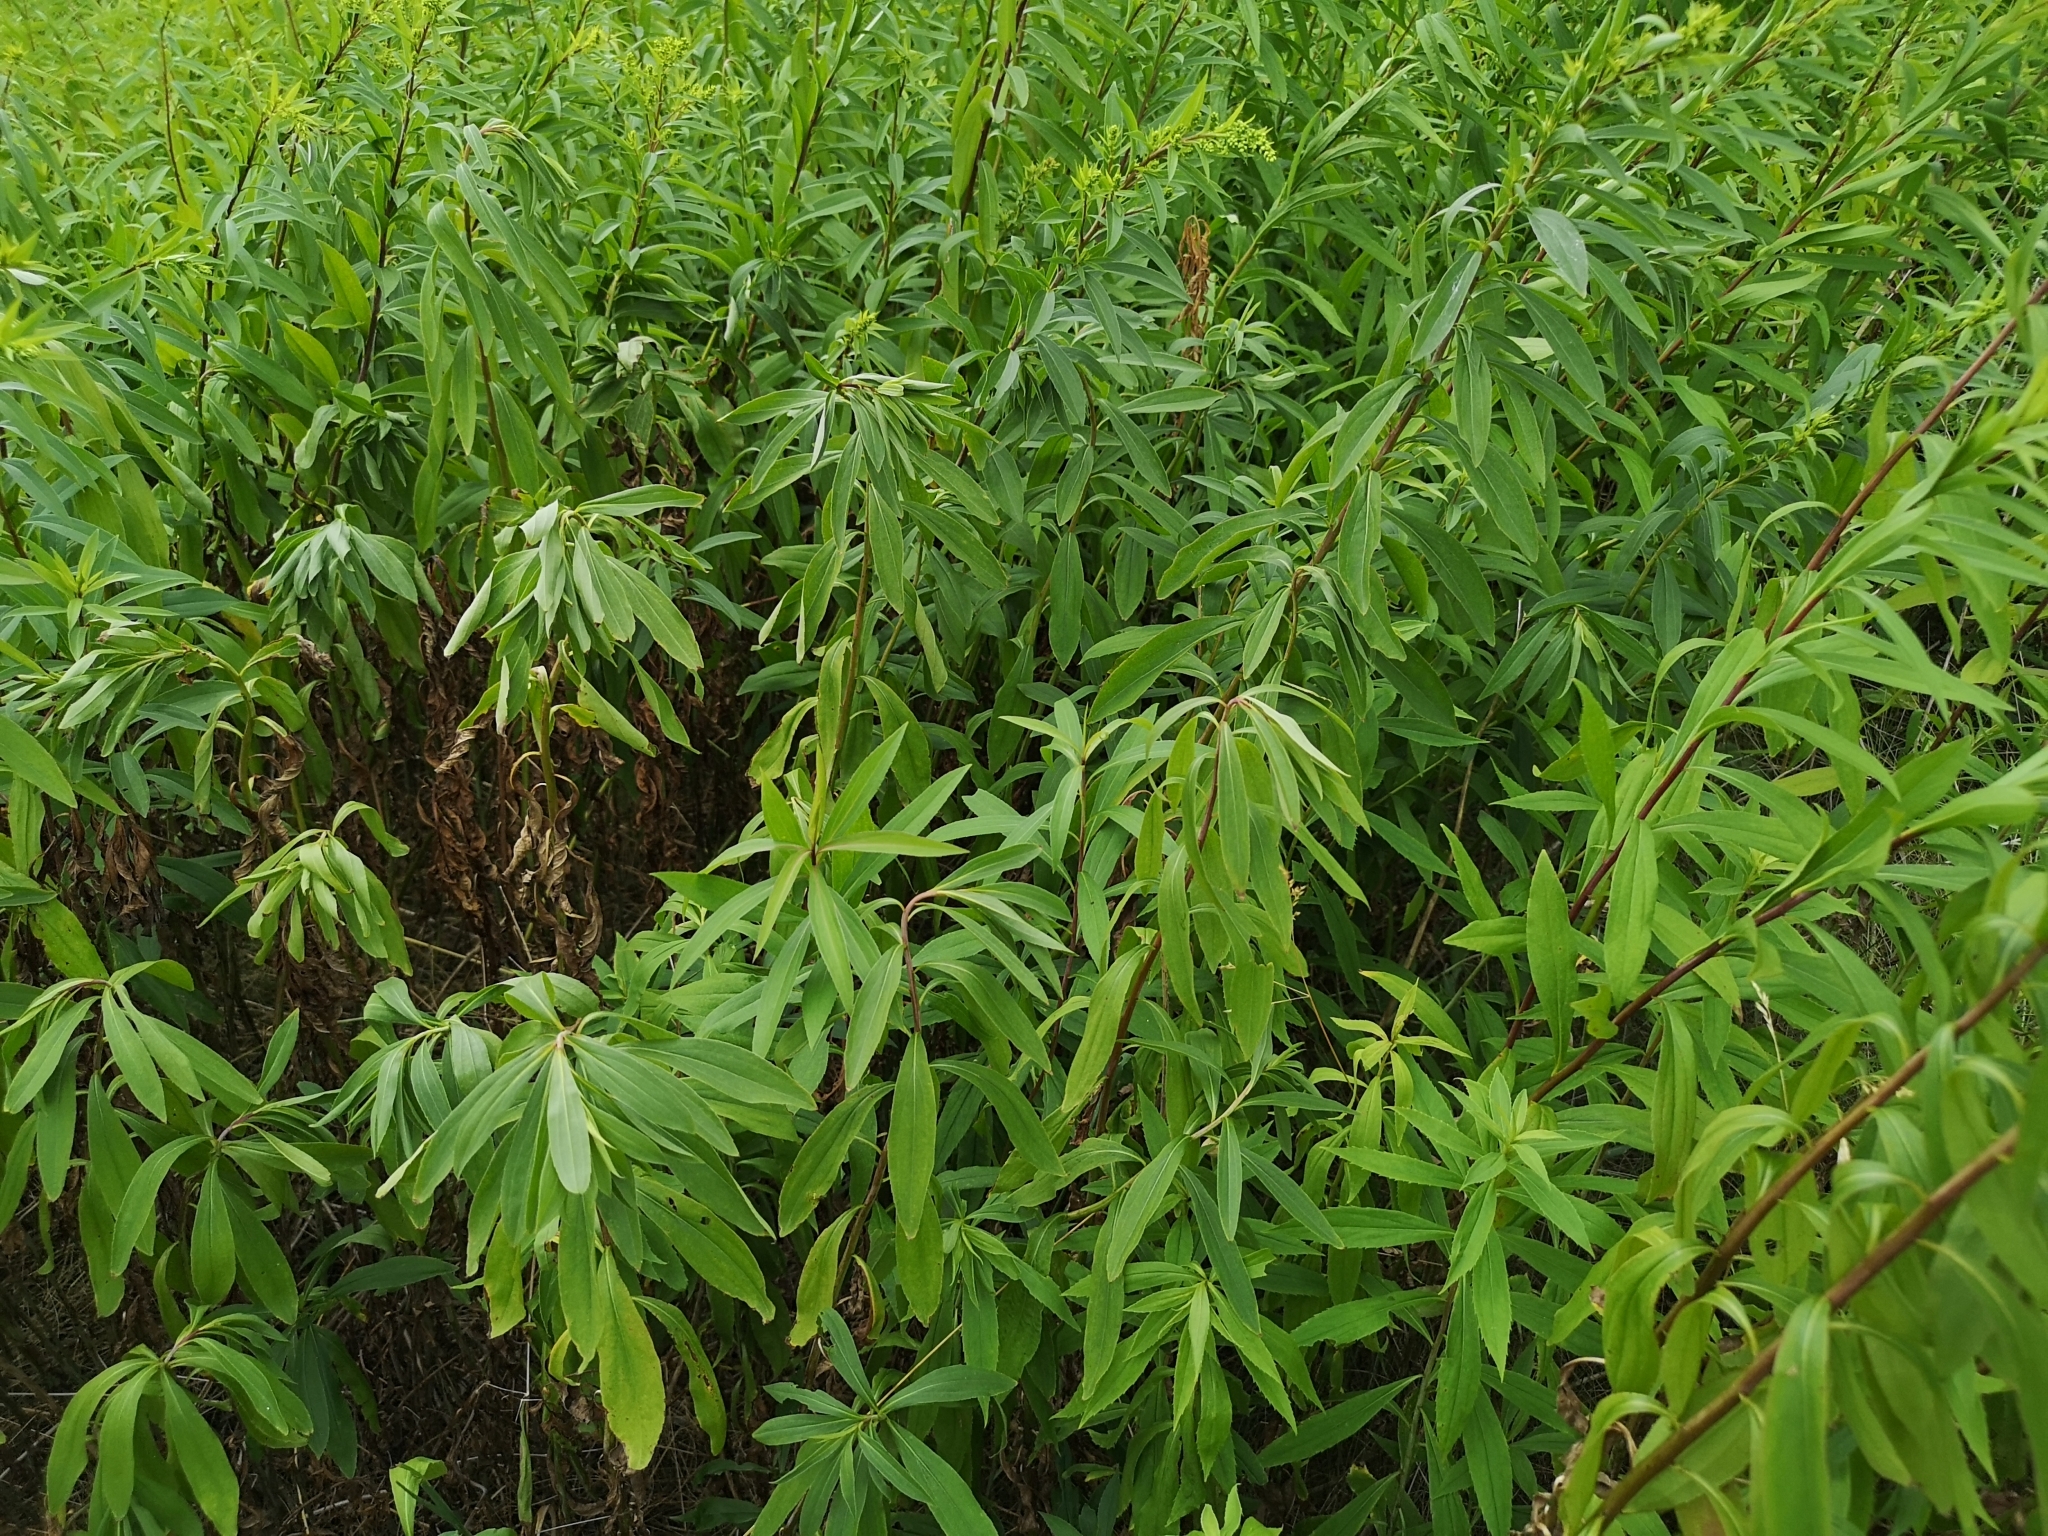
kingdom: Plantae
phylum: Tracheophyta
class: Magnoliopsida
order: Asterales
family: Asteraceae
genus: Solidago
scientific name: Solidago gigantea
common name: Giant goldenrod
